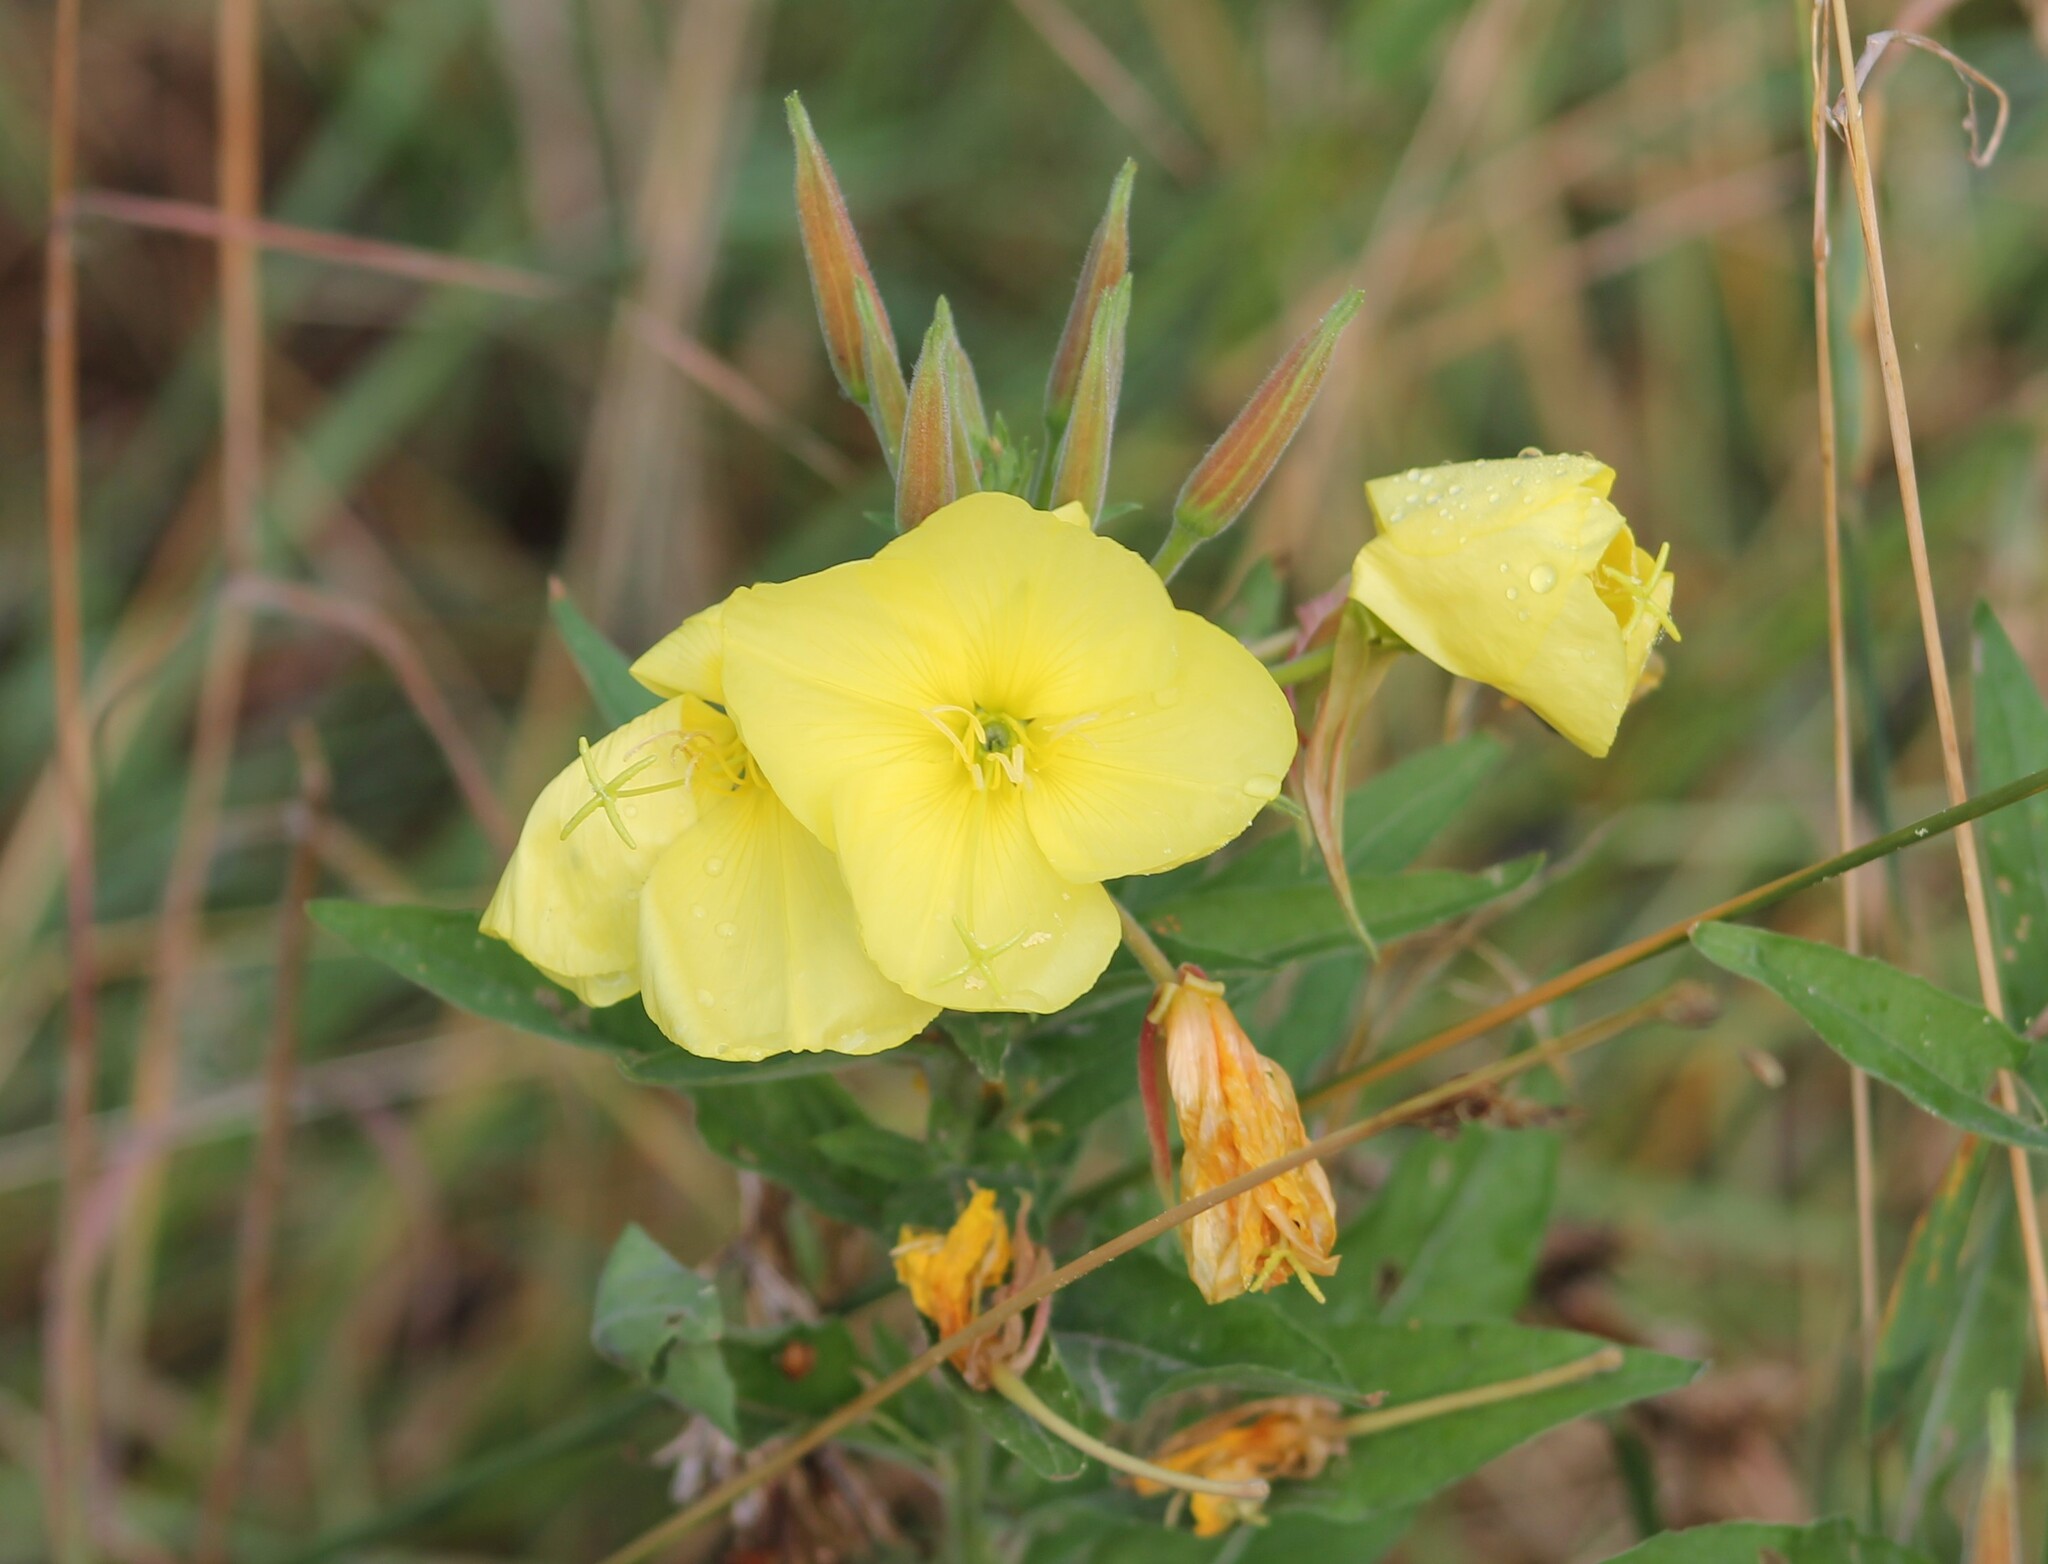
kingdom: Plantae
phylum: Tracheophyta
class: Magnoliopsida
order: Myrtales
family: Onagraceae
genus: Oenothera
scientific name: Oenothera glazioviana
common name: Large-flowered evening-primrose
